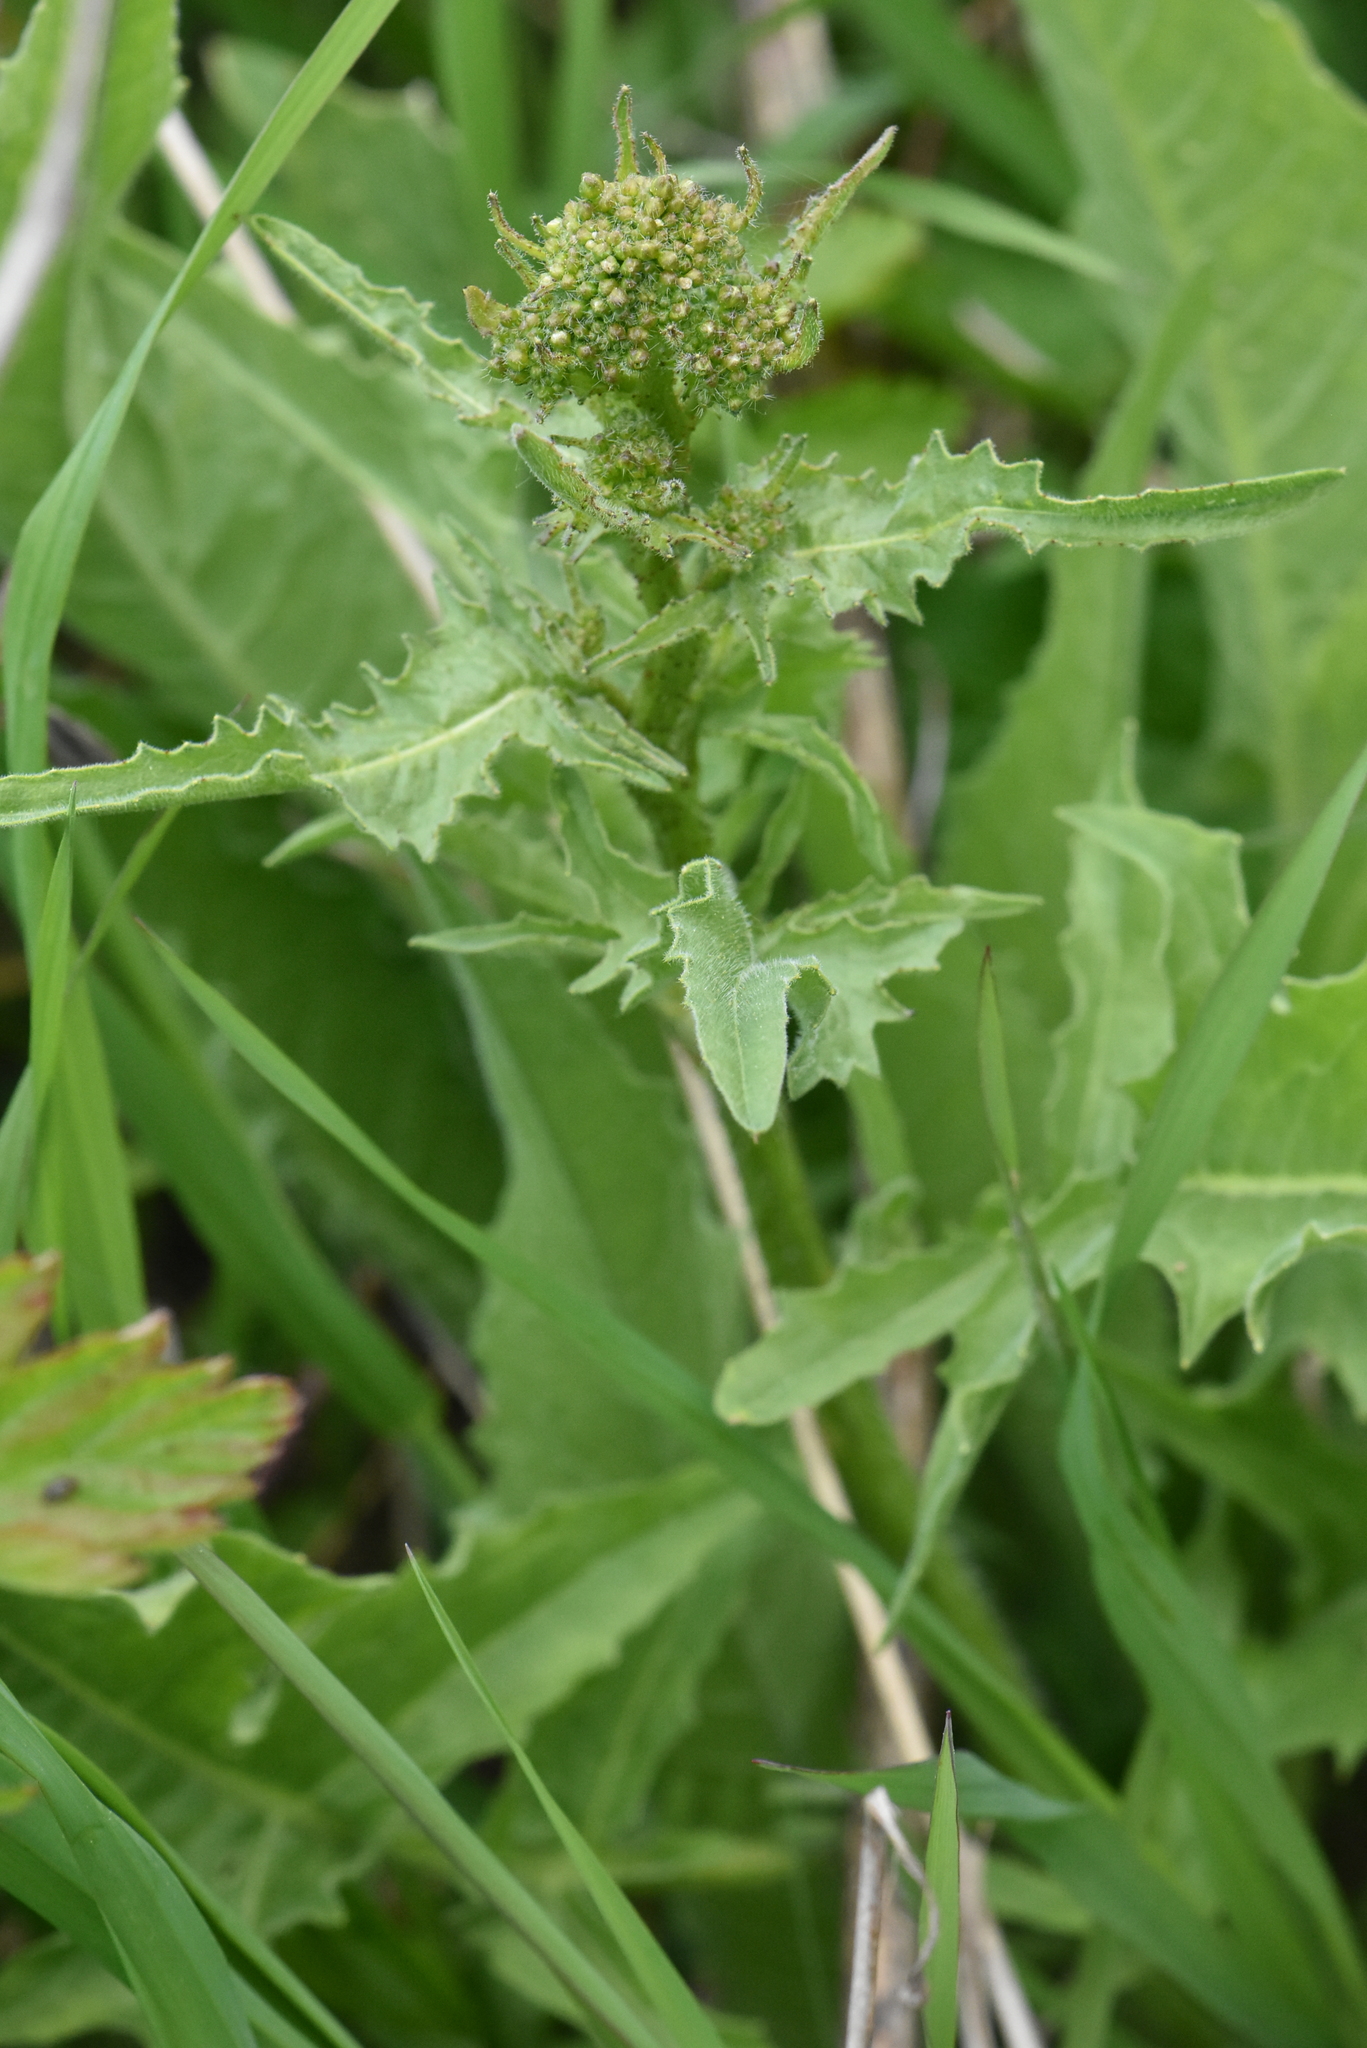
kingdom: Plantae
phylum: Tracheophyta
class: Magnoliopsida
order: Brassicales
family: Brassicaceae
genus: Bunias
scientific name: Bunias orientalis
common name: Warty-cabbage
